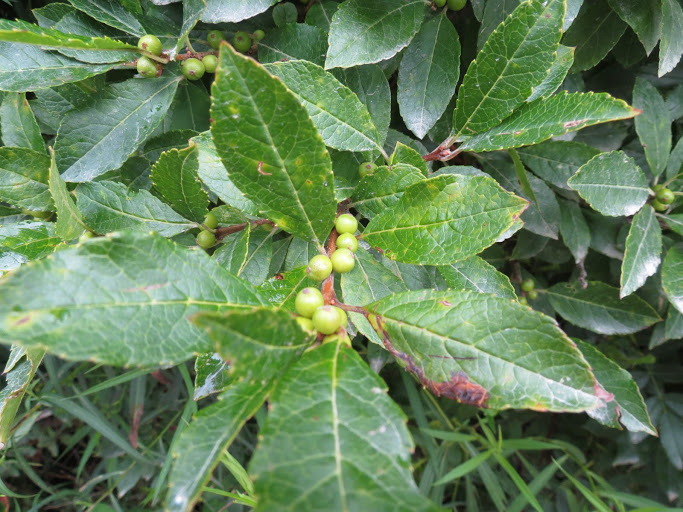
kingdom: Plantae
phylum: Tracheophyta
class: Magnoliopsida
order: Aquifoliales
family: Aquifoliaceae
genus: Ilex
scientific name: Ilex verticillata
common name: Virginia winterberry
